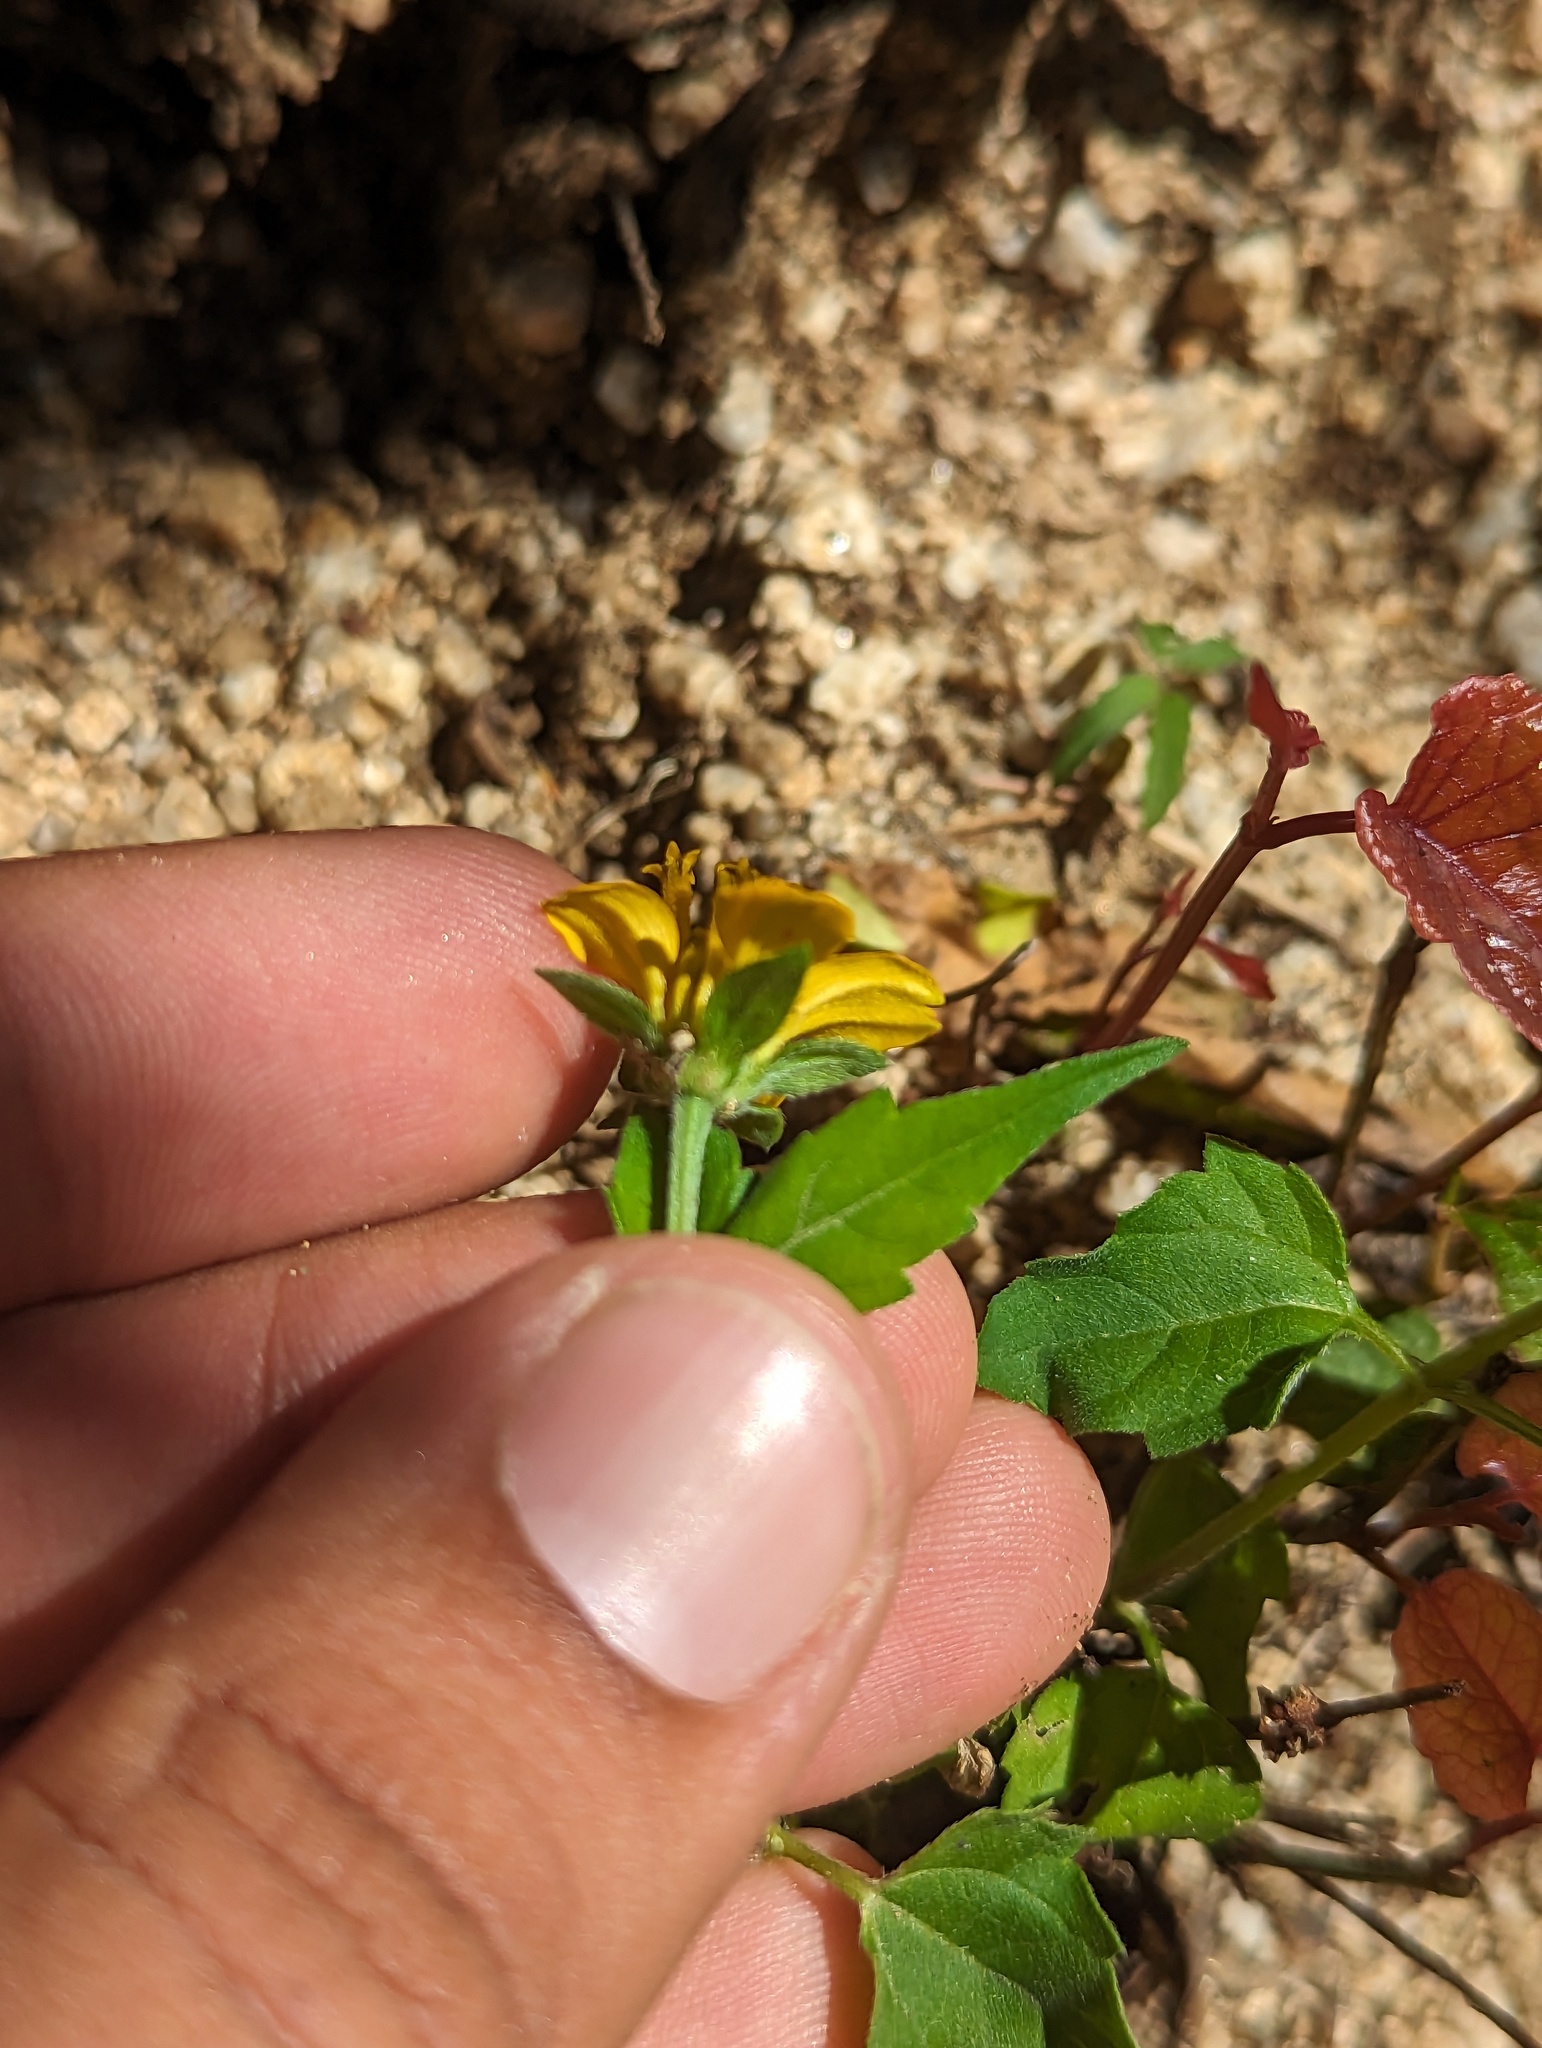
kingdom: Plantae
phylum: Tracheophyta
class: Magnoliopsida
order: Asterales
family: Asteraceae
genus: Sclerocarpus
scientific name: Sclerocarpus divaricatus
